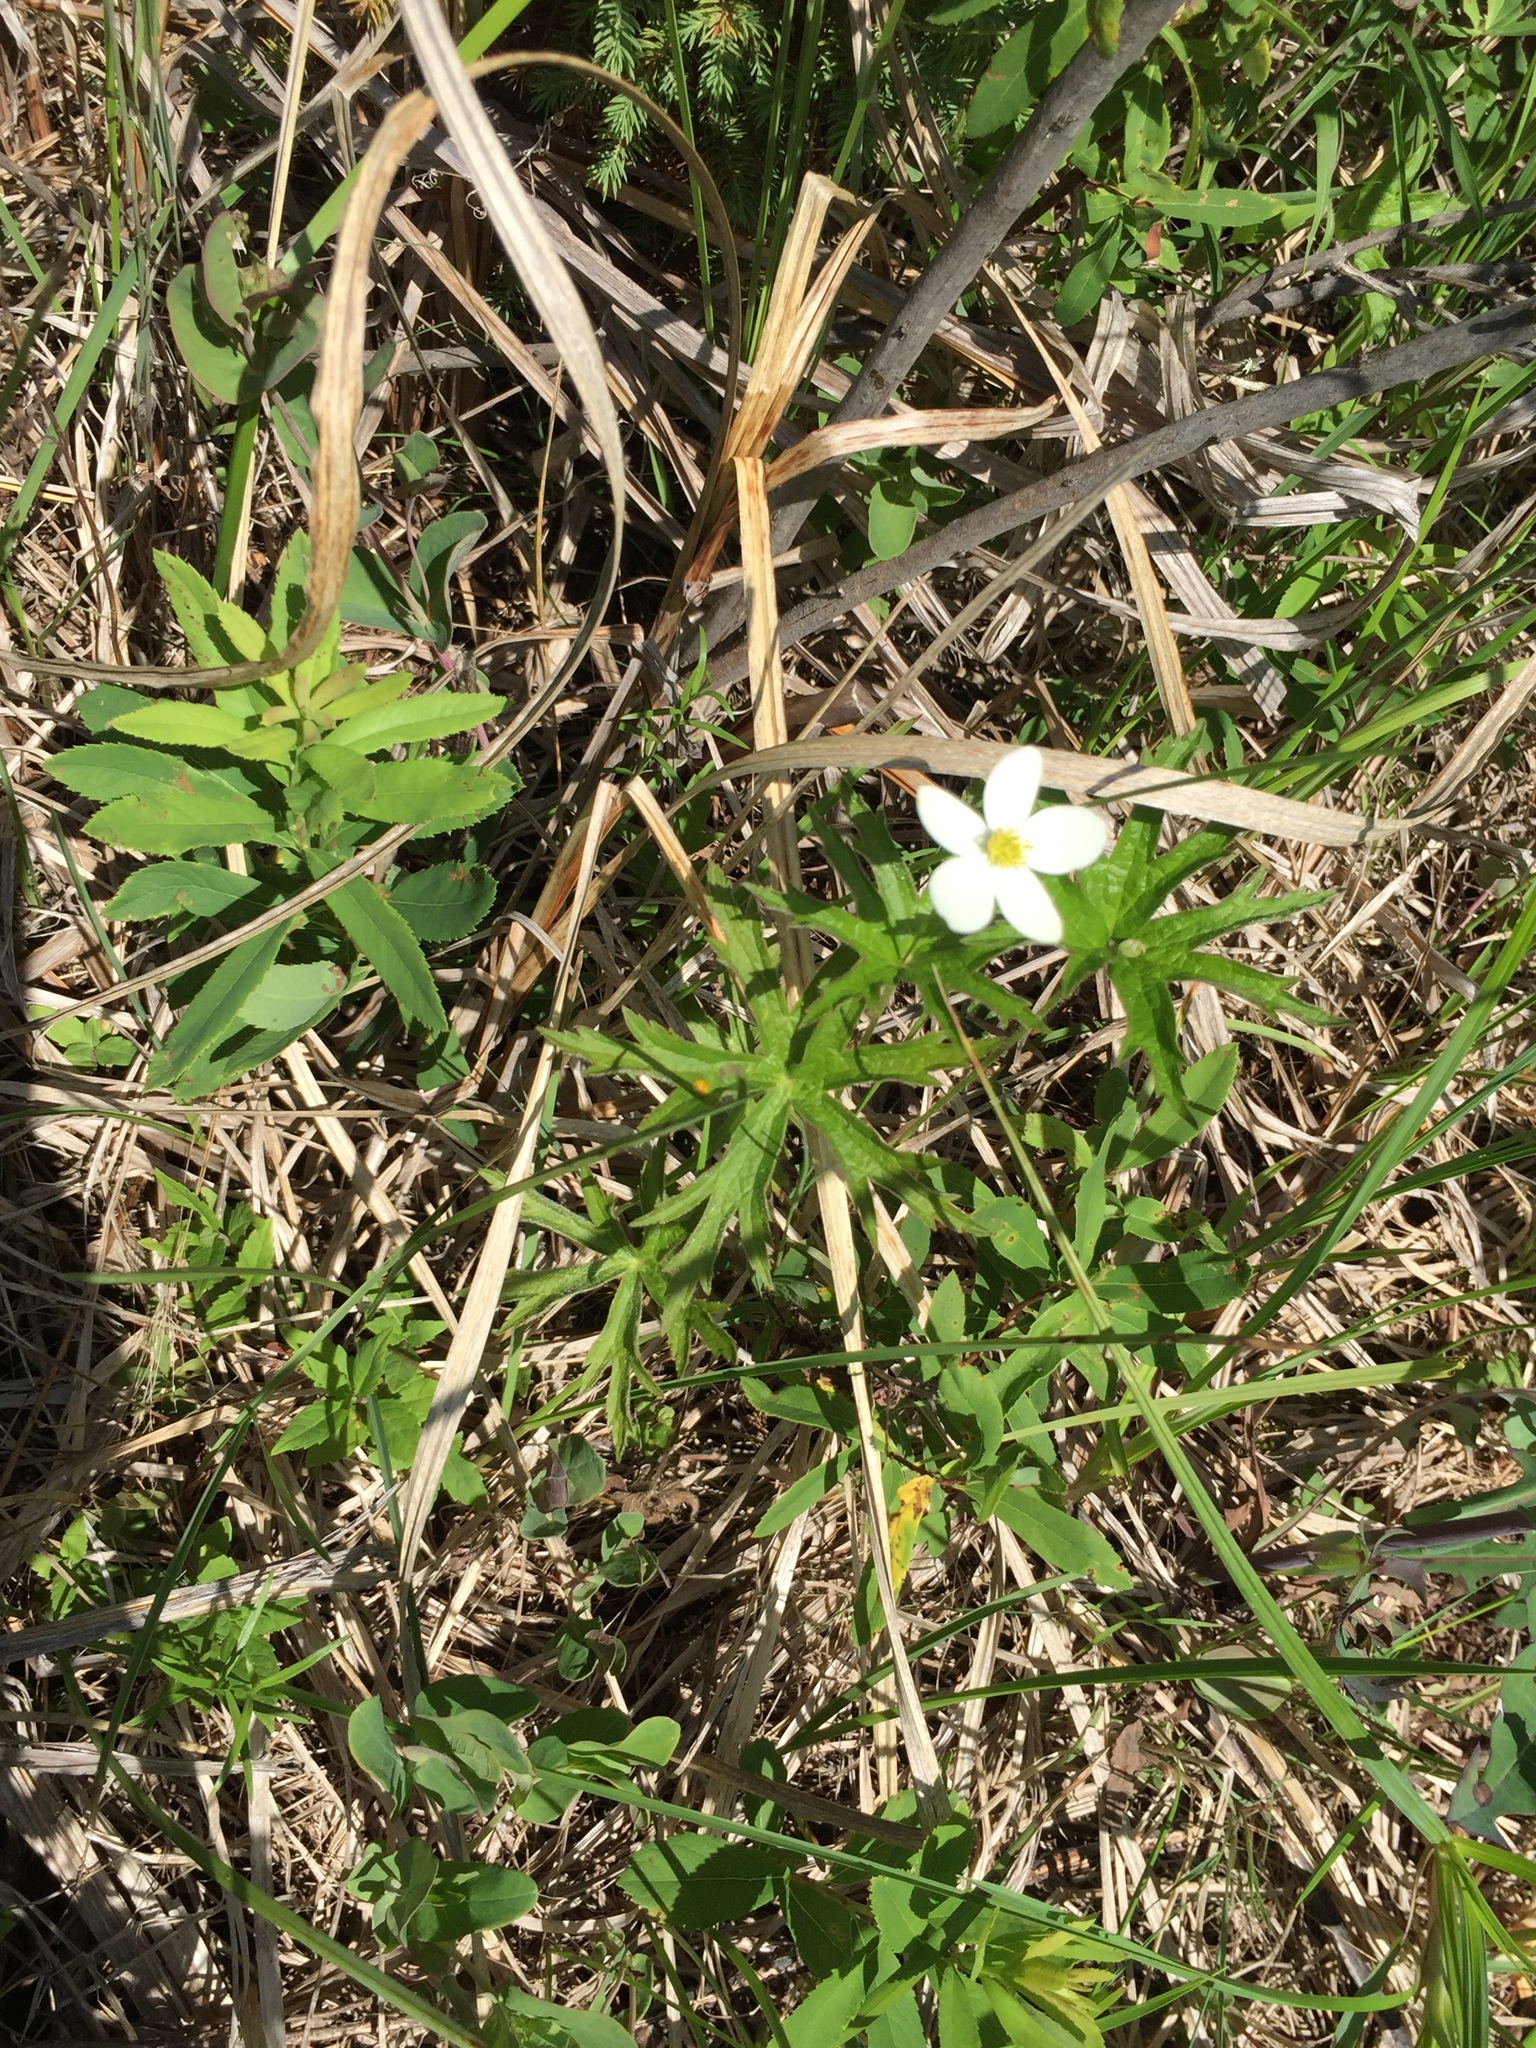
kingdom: Plantae
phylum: Tracheophyta
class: Magnoliopsida
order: Ranunculales
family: Ranunculaceae
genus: Anemonastrum
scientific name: Anemonastrum canadense
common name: Canada anemone
